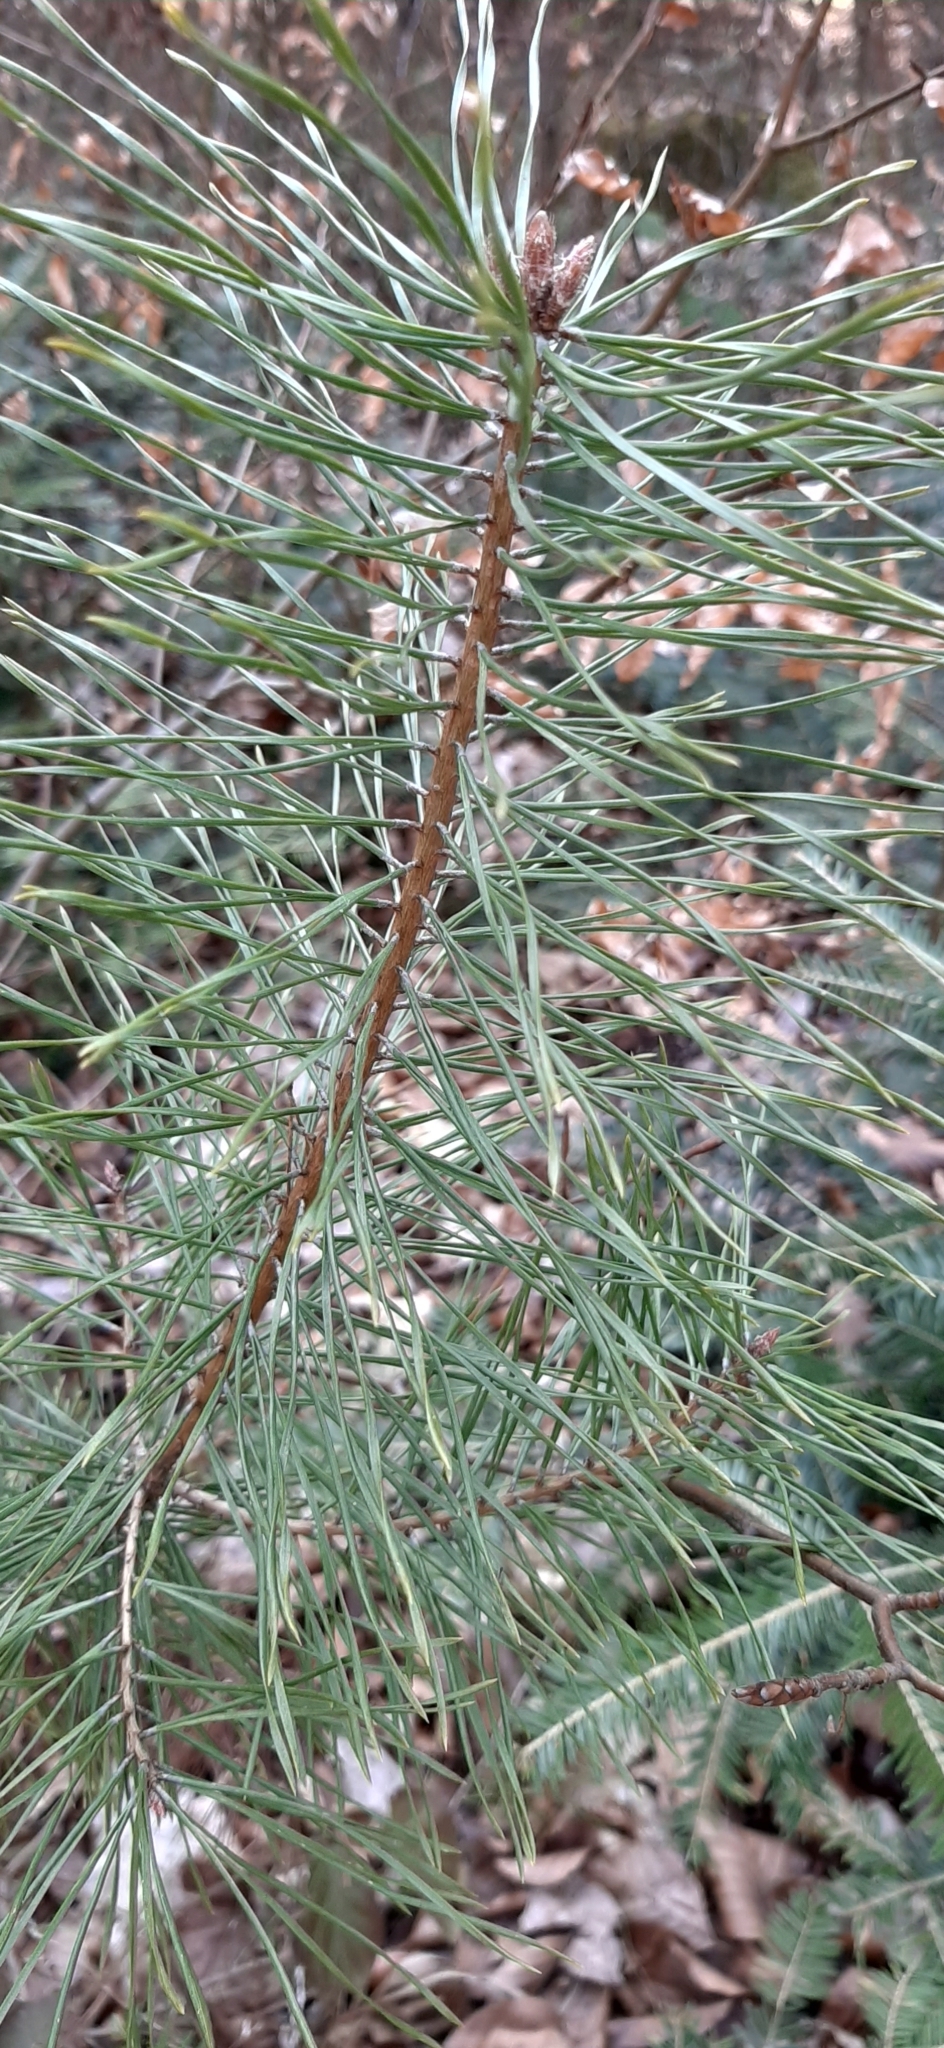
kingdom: Plantae
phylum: Tracheophyta
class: Pinopsida
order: Pinales
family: Pinaceae
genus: Pinus
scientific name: Pinus sylvestris
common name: Scots pine
